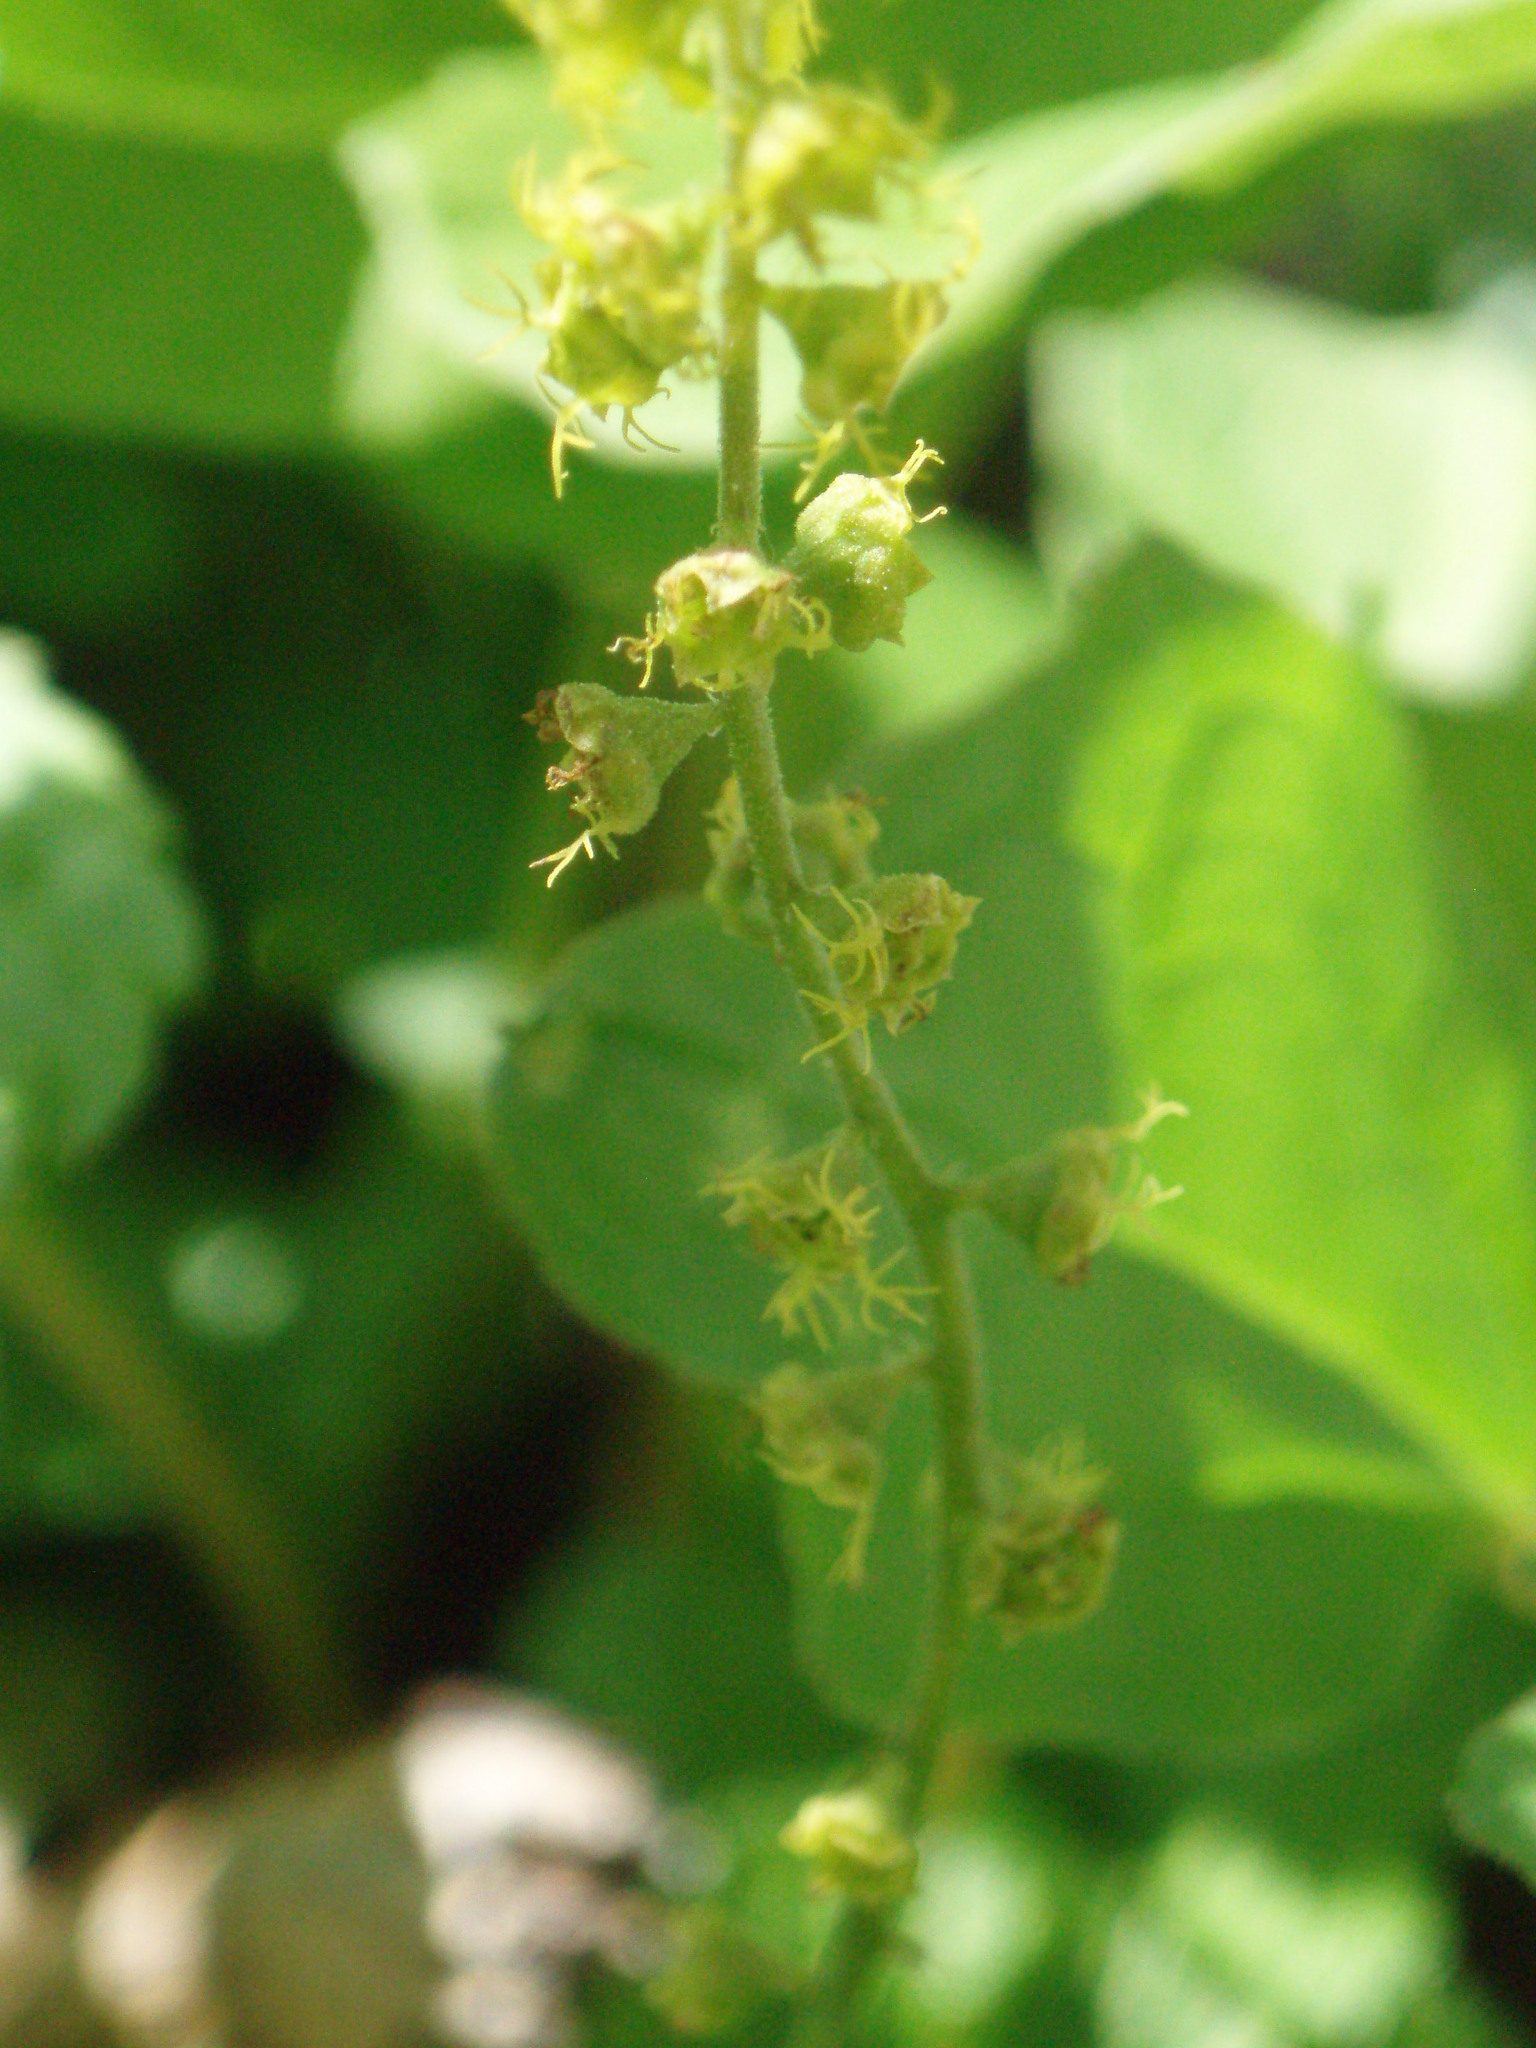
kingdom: Plantae
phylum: Tracheophyta
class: Magnoliopsida
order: Saxifragales
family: Saxifragaceae
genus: Brewerimitella
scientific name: Brewerimitella breweri
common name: Brewer's bishop's-cap
